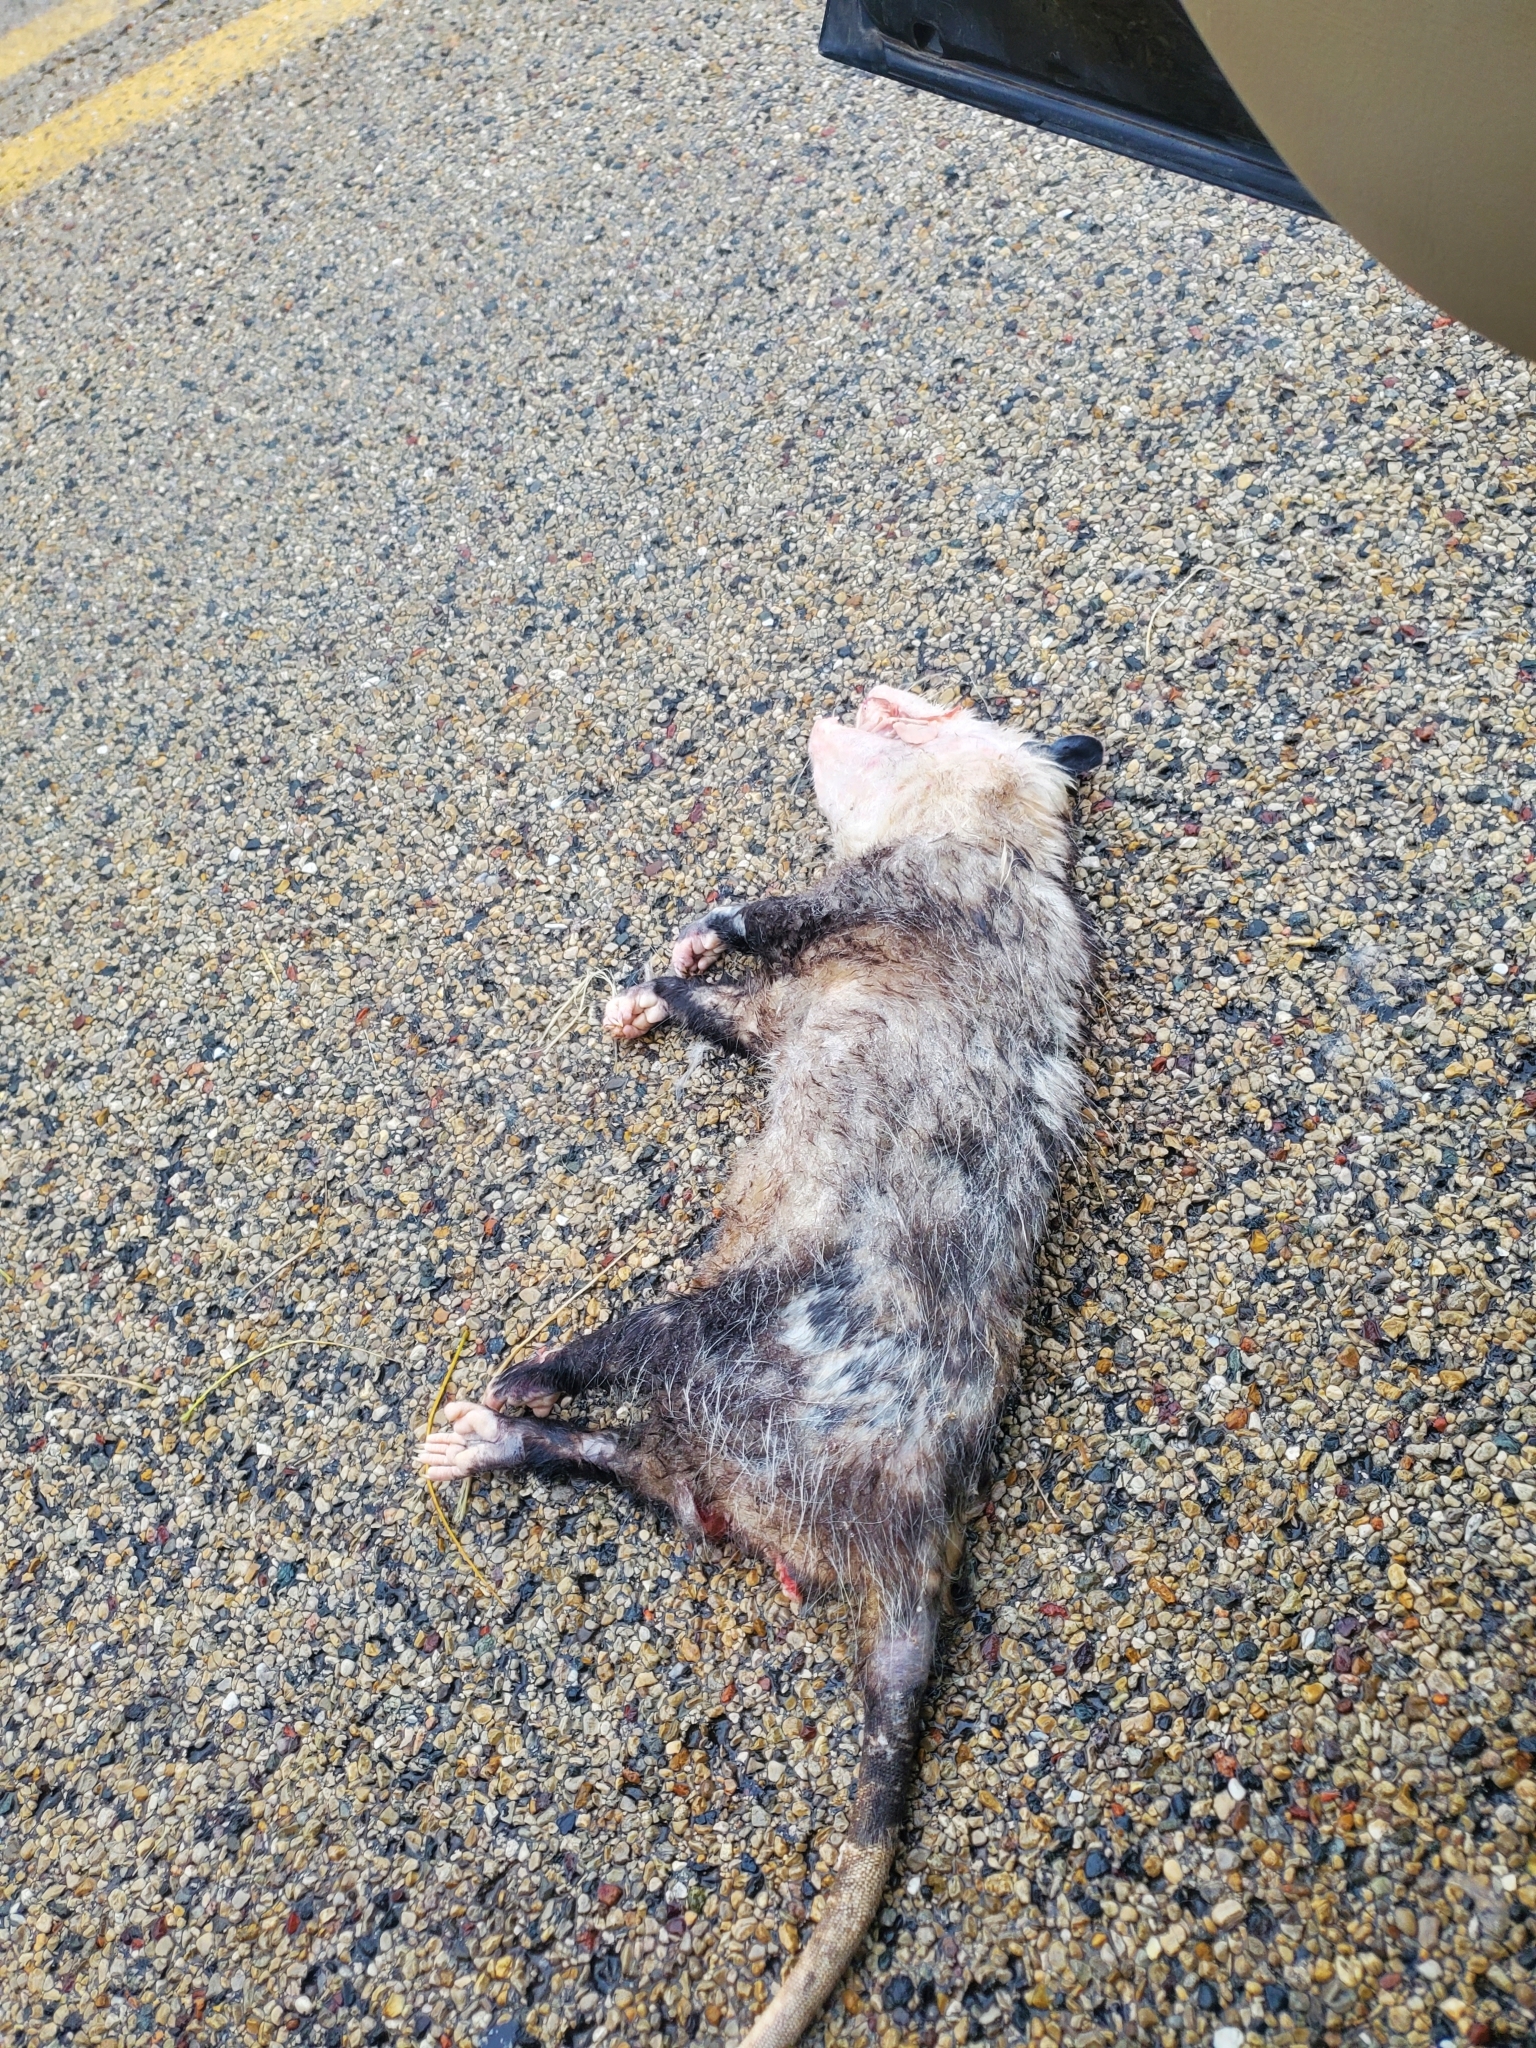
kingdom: Animalia
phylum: Chordata
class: Mammalia
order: Didelphimorphia
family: Didelphidae
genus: Didelphis
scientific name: Didelphis virginiana
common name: Virginia opossum
